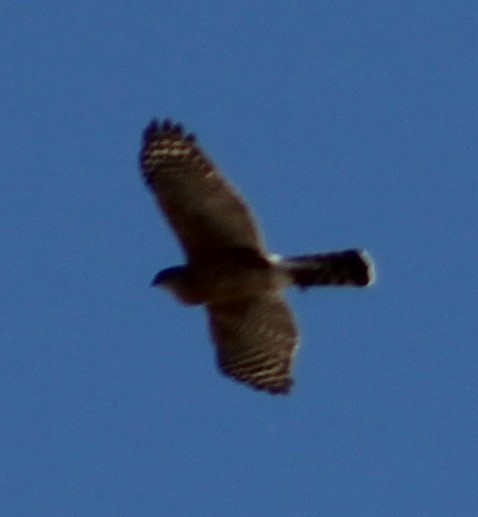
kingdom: Animalia
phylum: Chordata
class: Aves
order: Accipitriformes
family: Accipitridae
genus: Accipiter
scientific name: Accipiter cooperii
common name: Cooper's hawk
